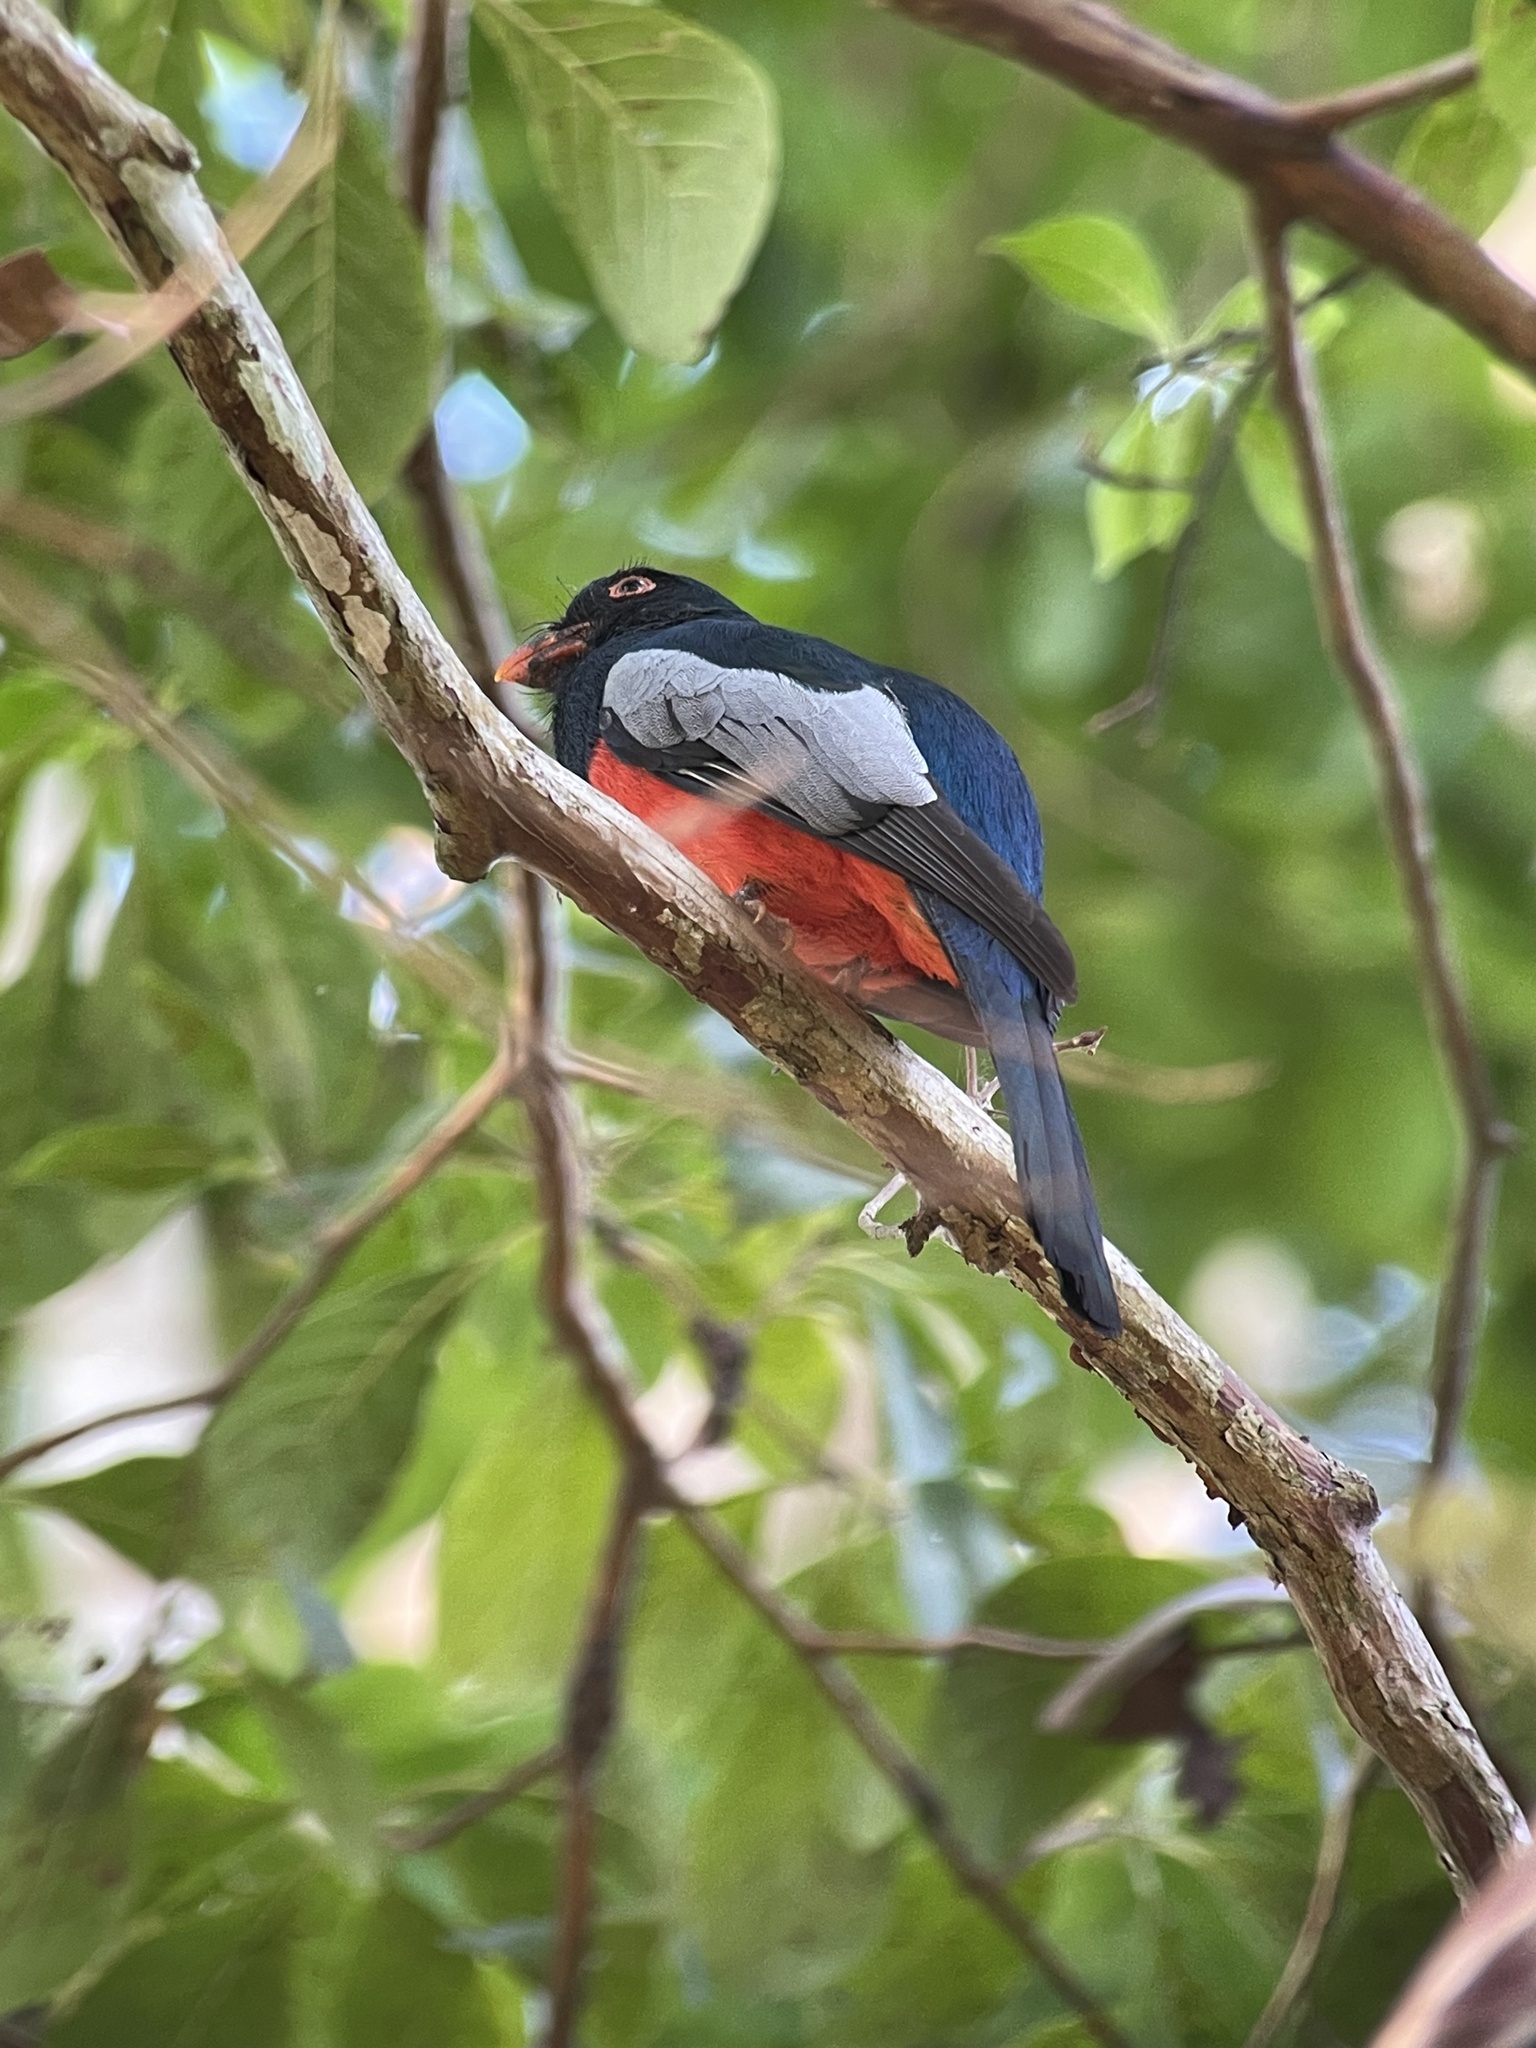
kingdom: Animalia
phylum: Chordata
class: Aves
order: Trogoniformes
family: Trogonidae
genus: Trogon
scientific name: Trogon massena
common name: Slaty-tailed trogon
